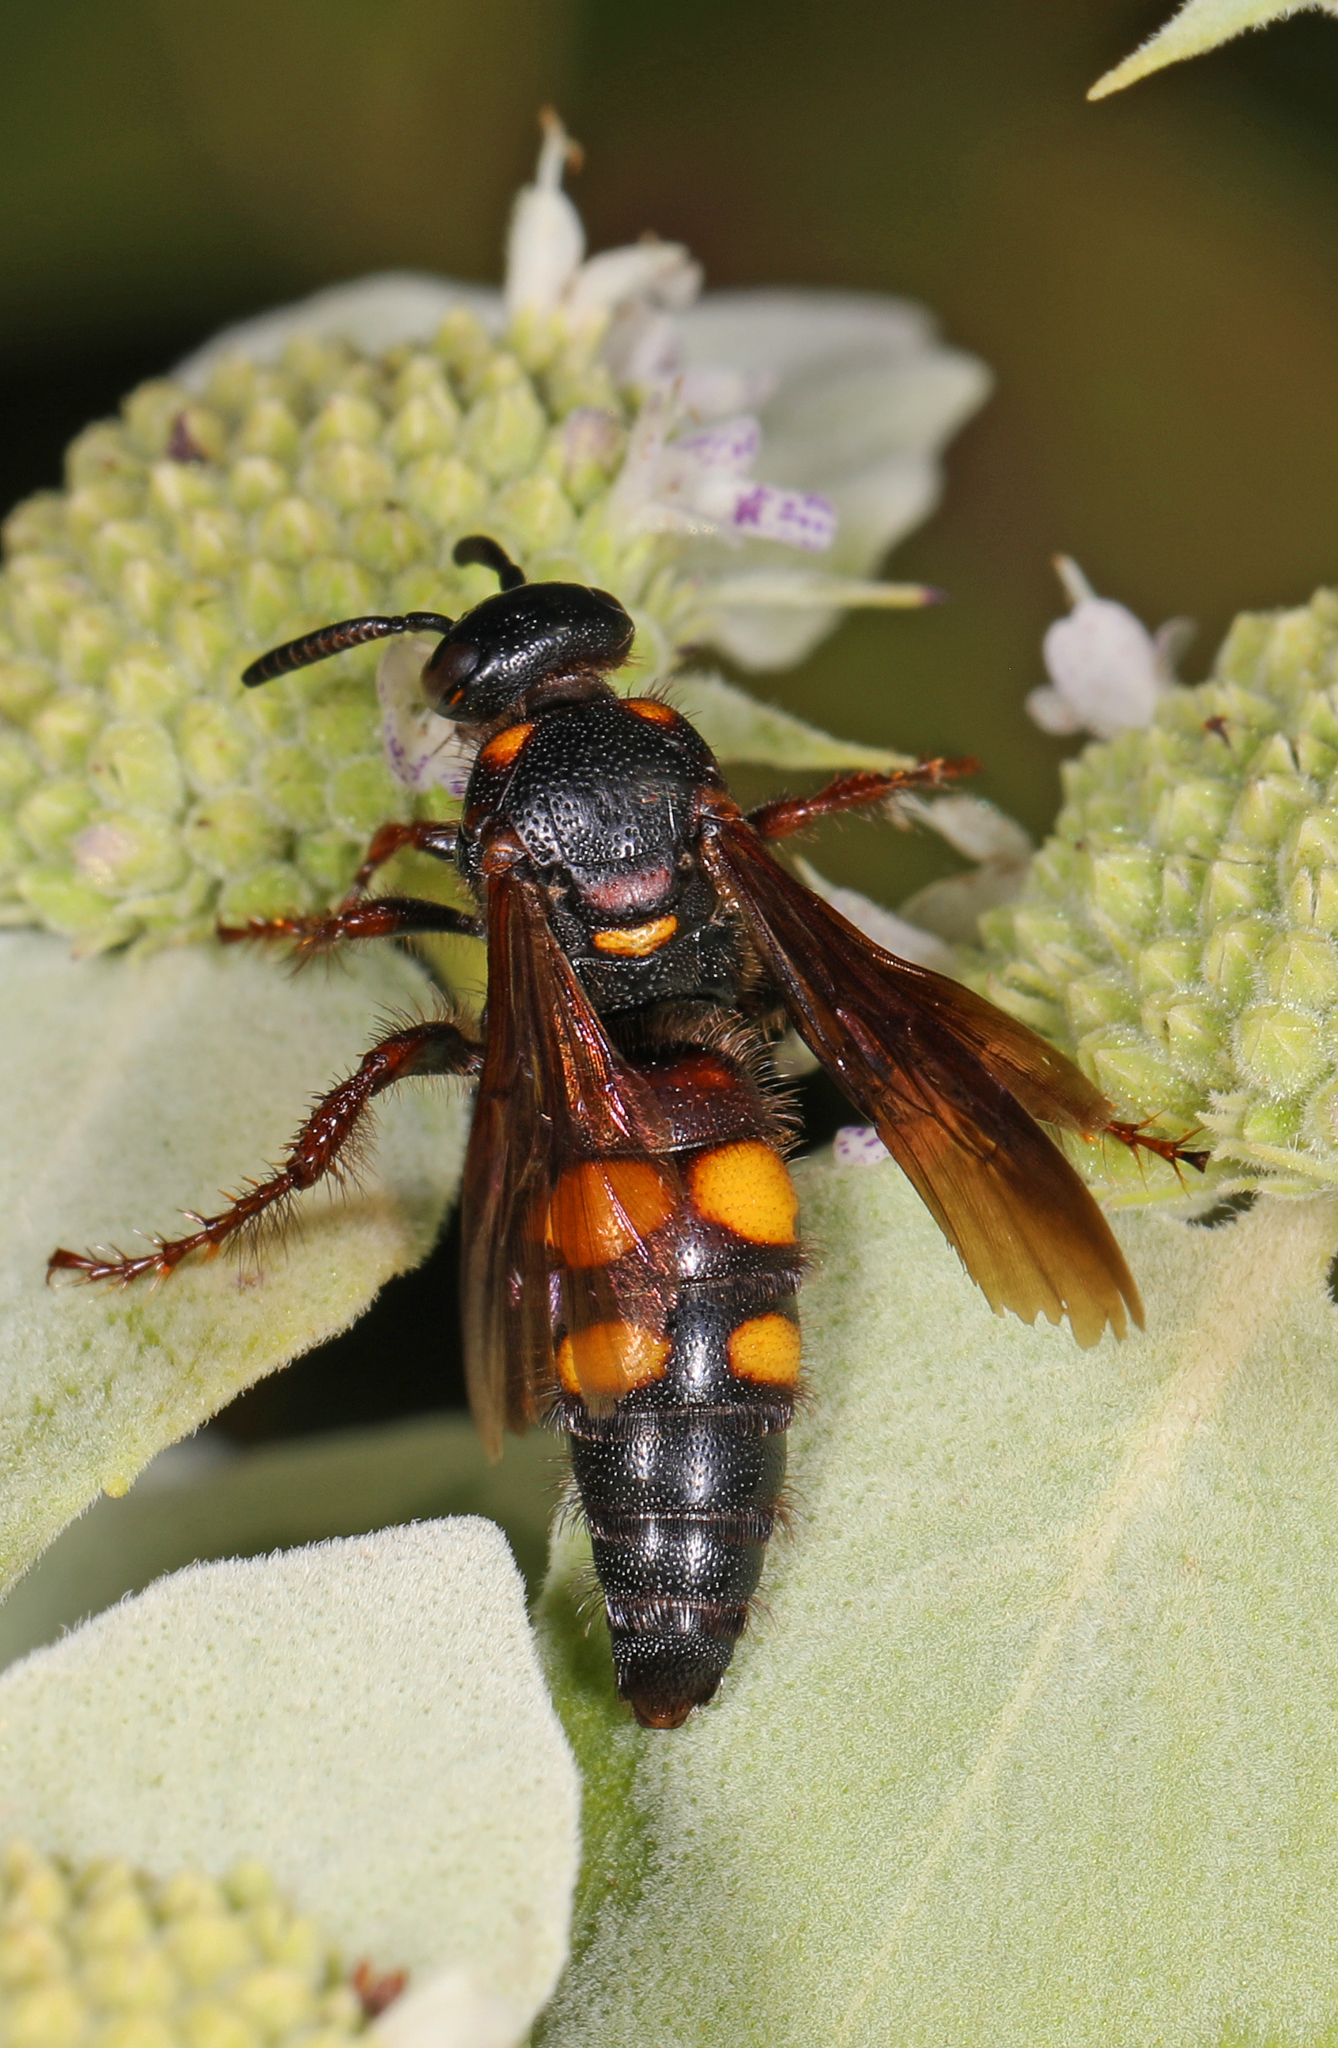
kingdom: Animalia
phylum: Arthropoda
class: Insecta
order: Hymenoptera
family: Scoliidae
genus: Scolia
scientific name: Scolia nobilitata
